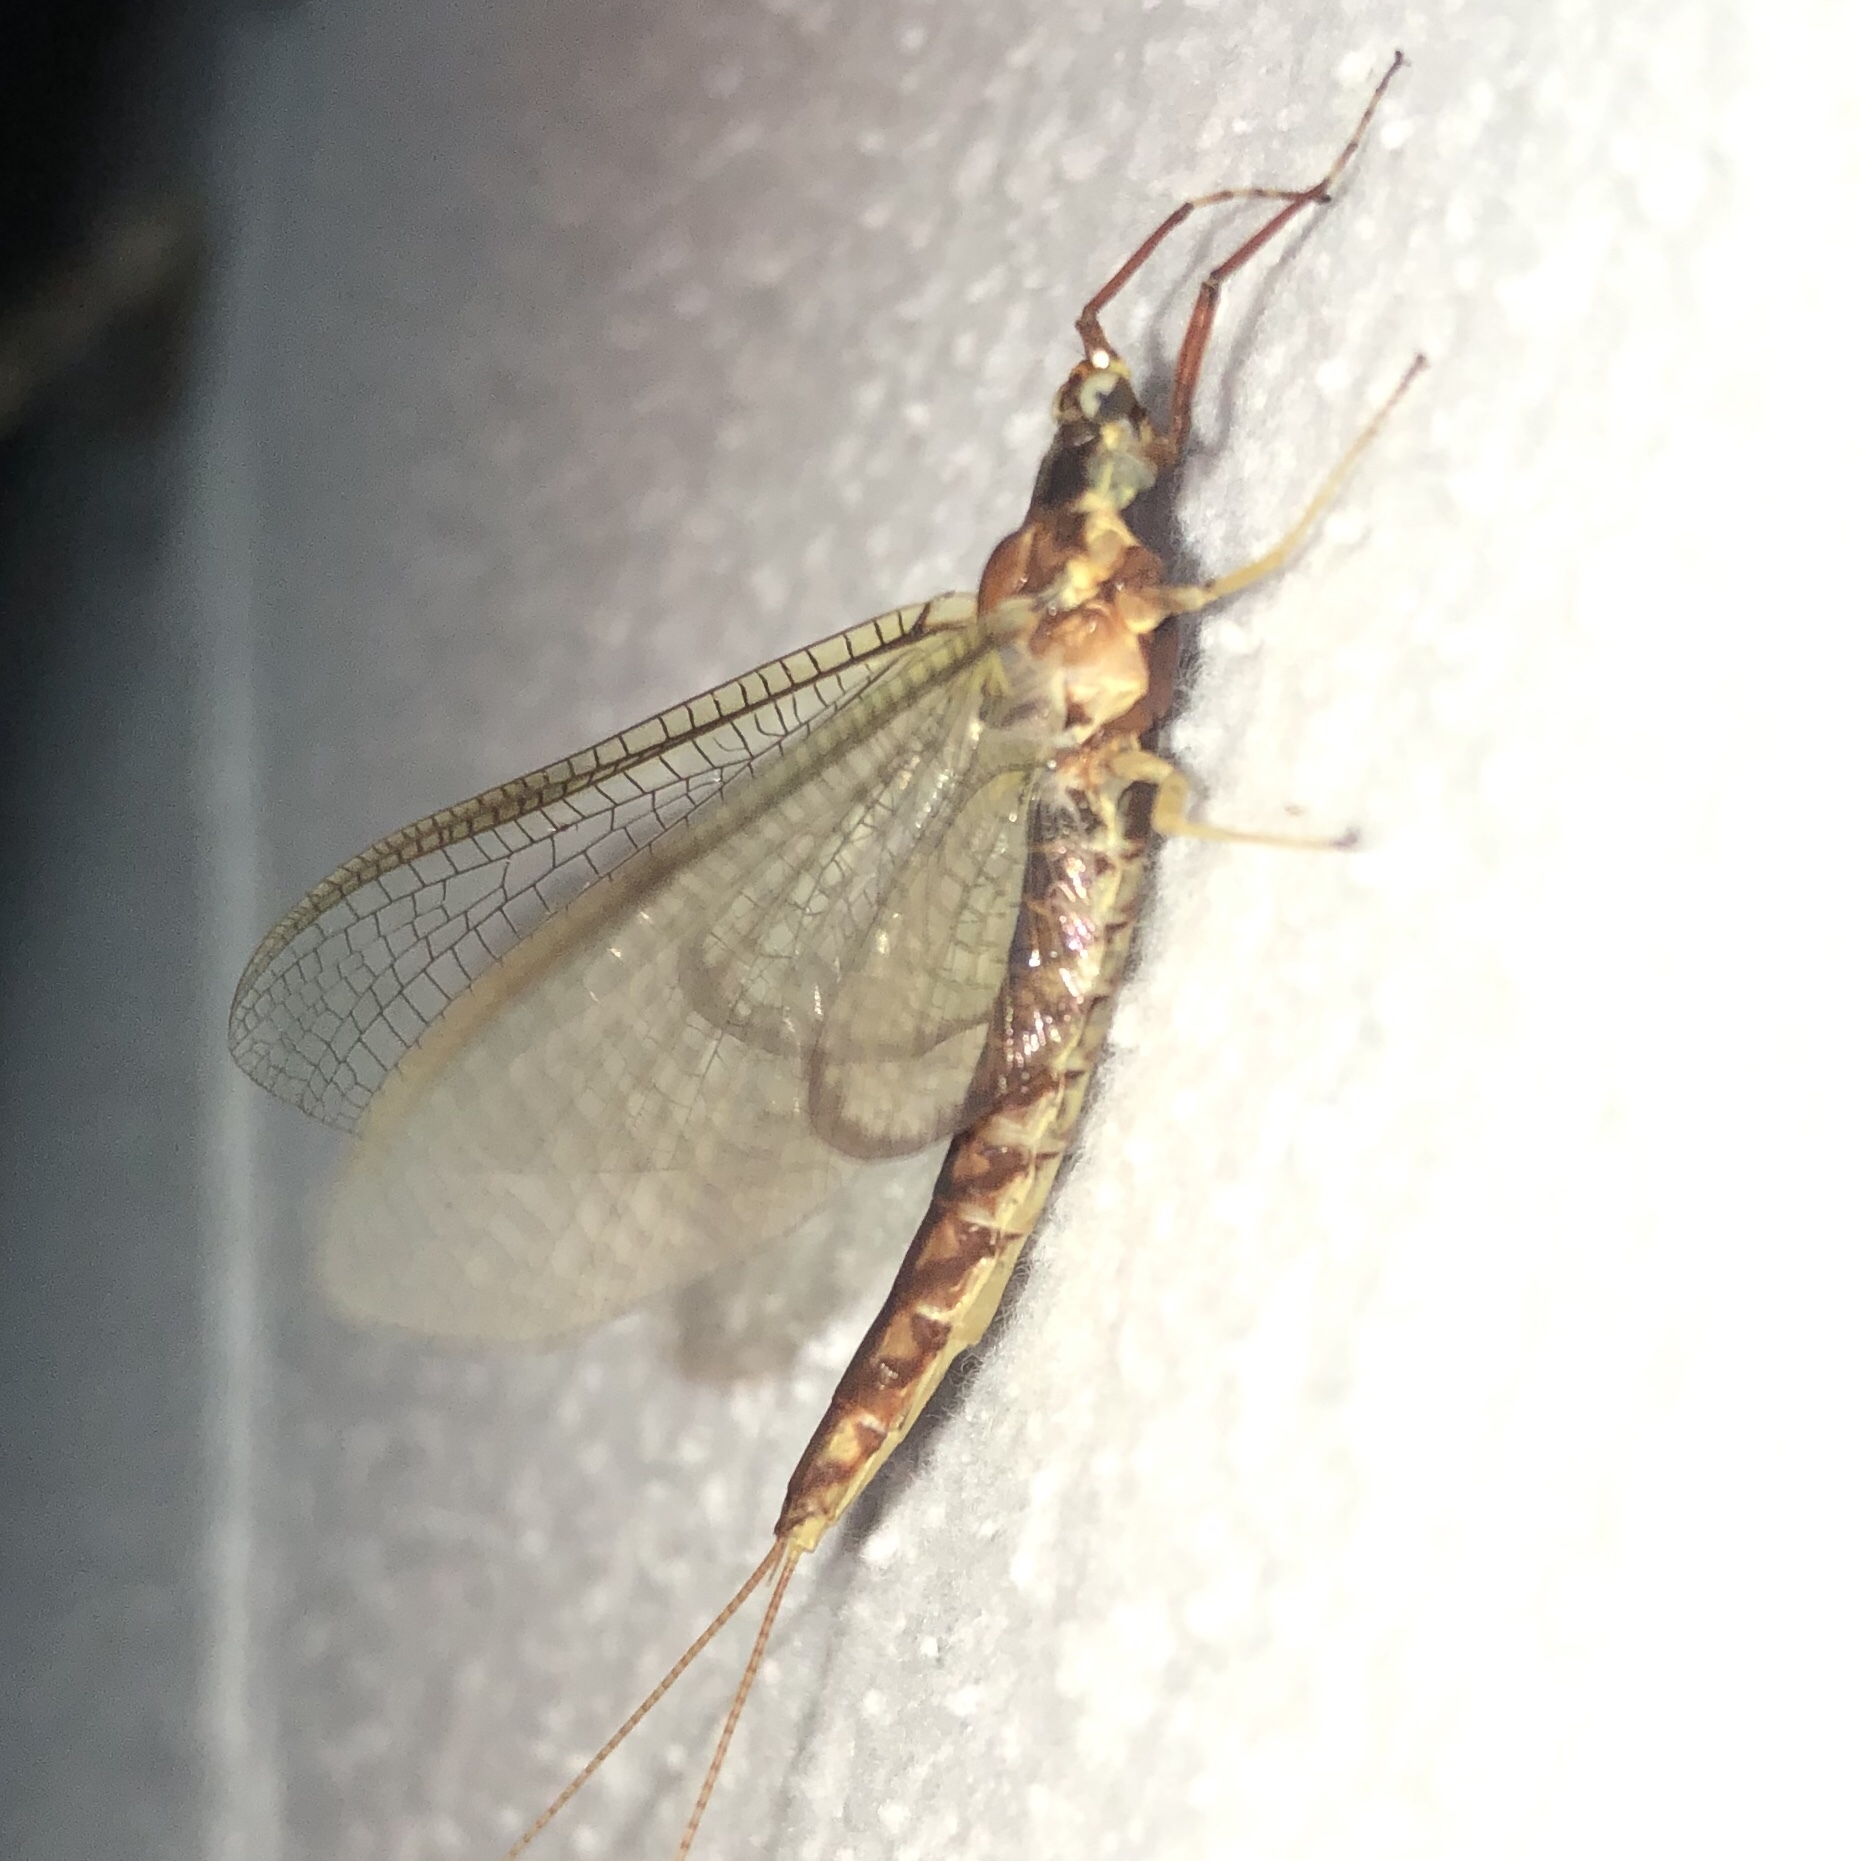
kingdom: Animalia
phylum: Arthropoda
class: Insecta
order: Ephemeroptera
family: Ephemeridae
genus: Hexagenia
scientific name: Hexagenia limbata
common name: Giant mayfly
